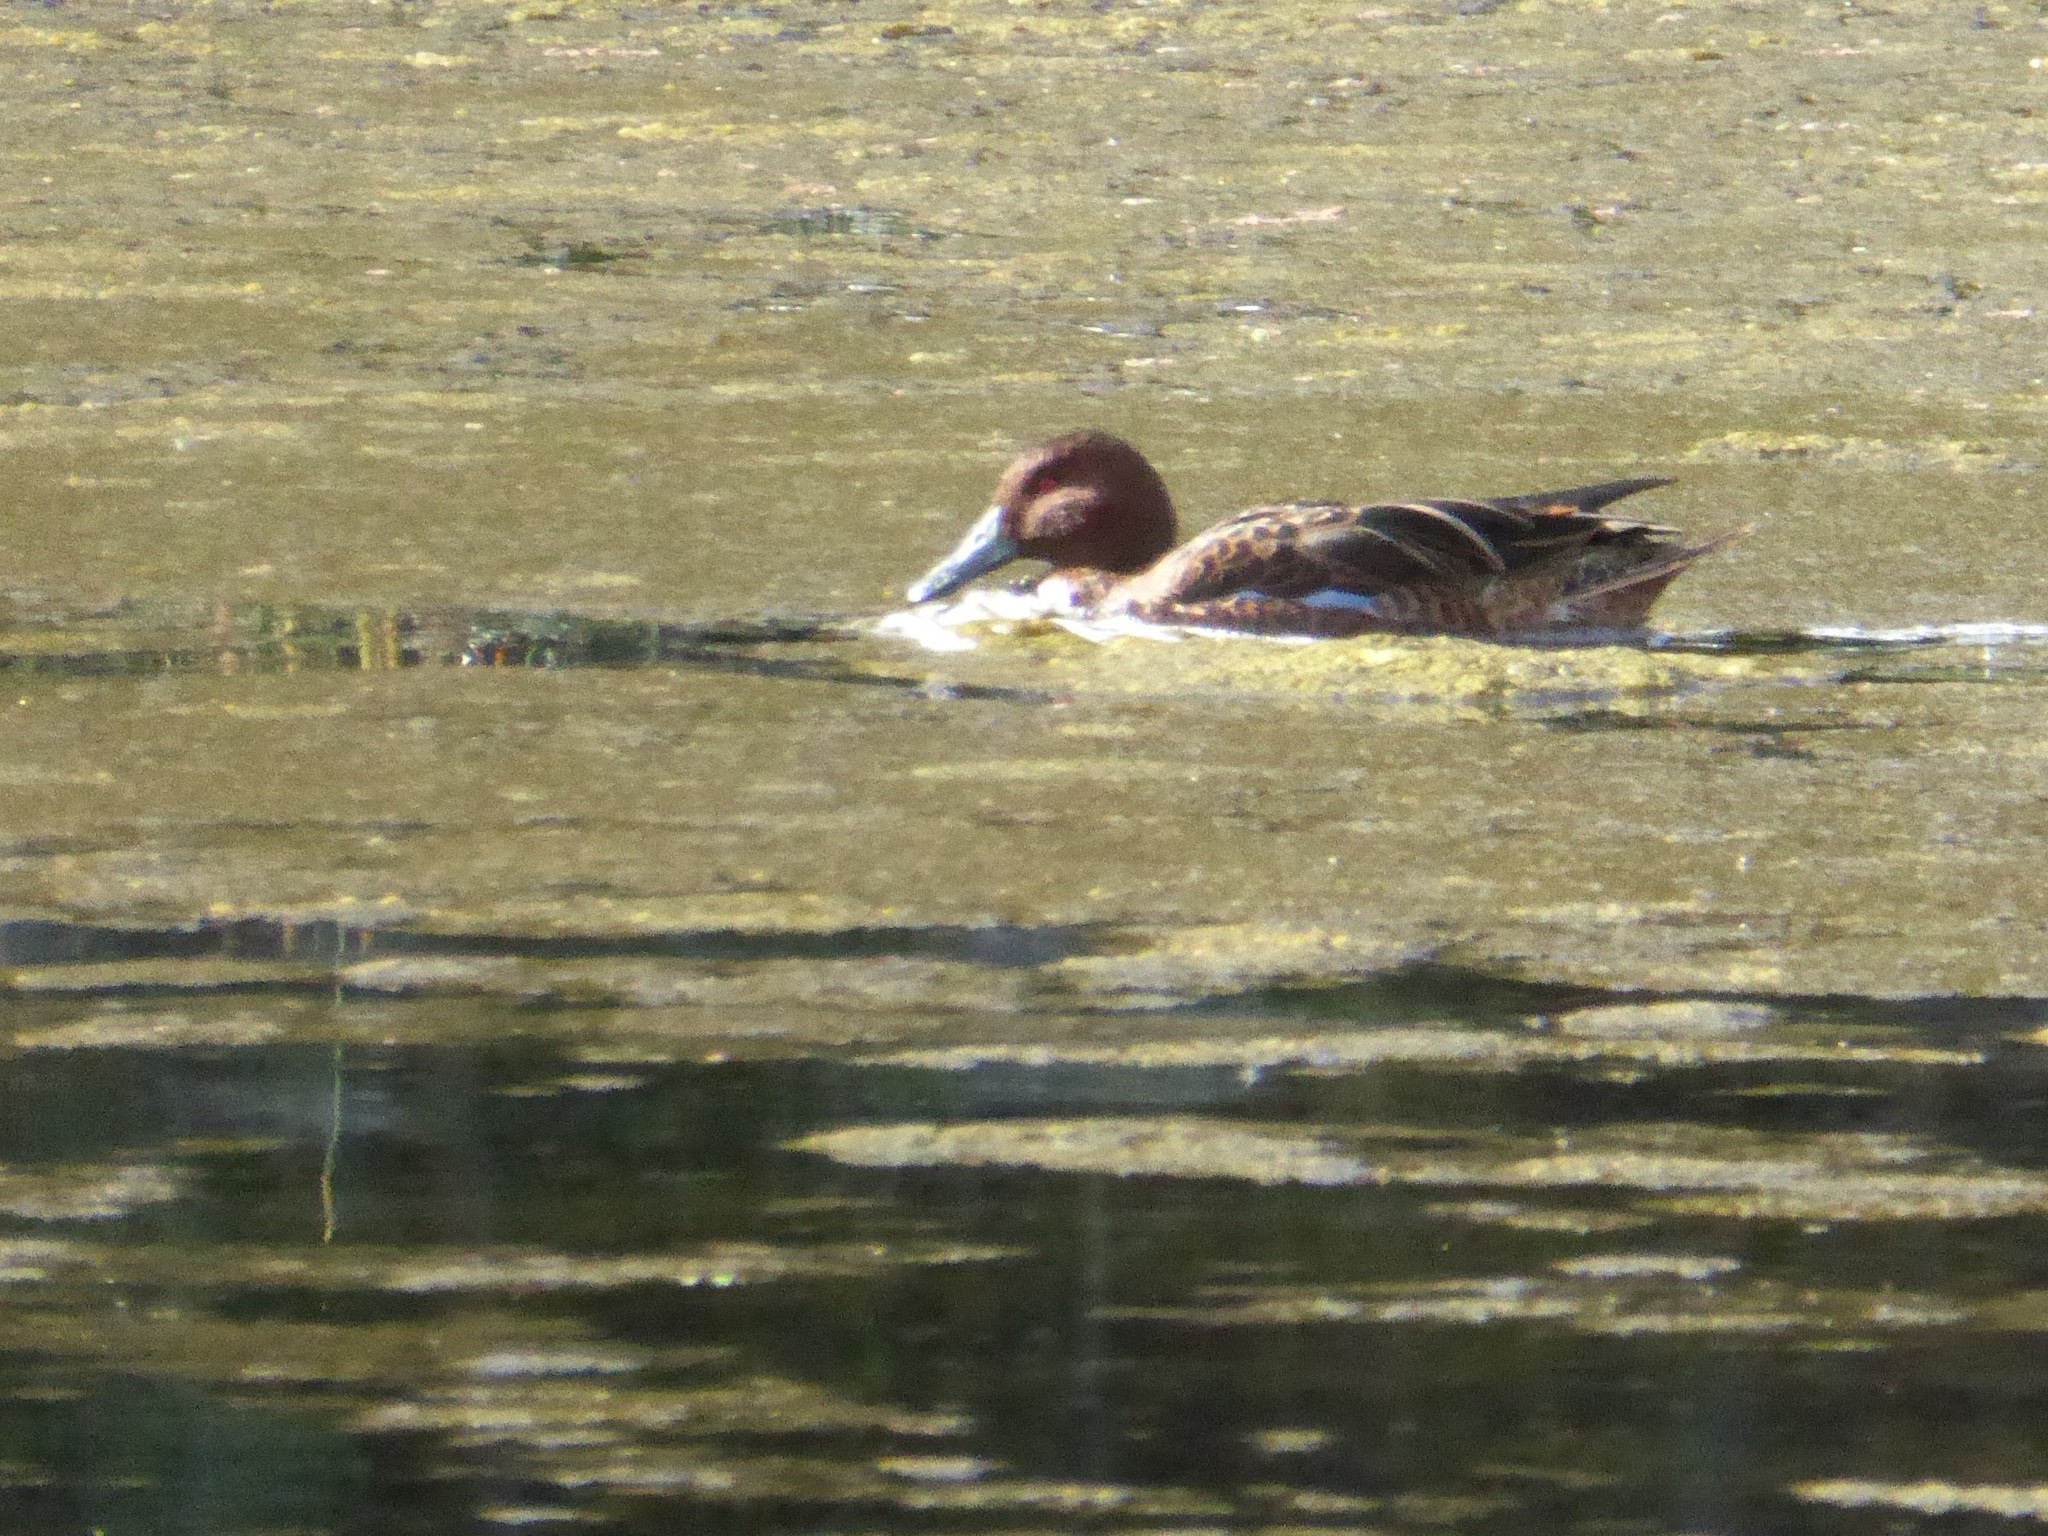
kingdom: Animalia
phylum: Chordata
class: Aves
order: Anseriformes
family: Anatidae
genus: Spatula
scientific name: Spatula cyanoptera
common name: Cinnamon teal
